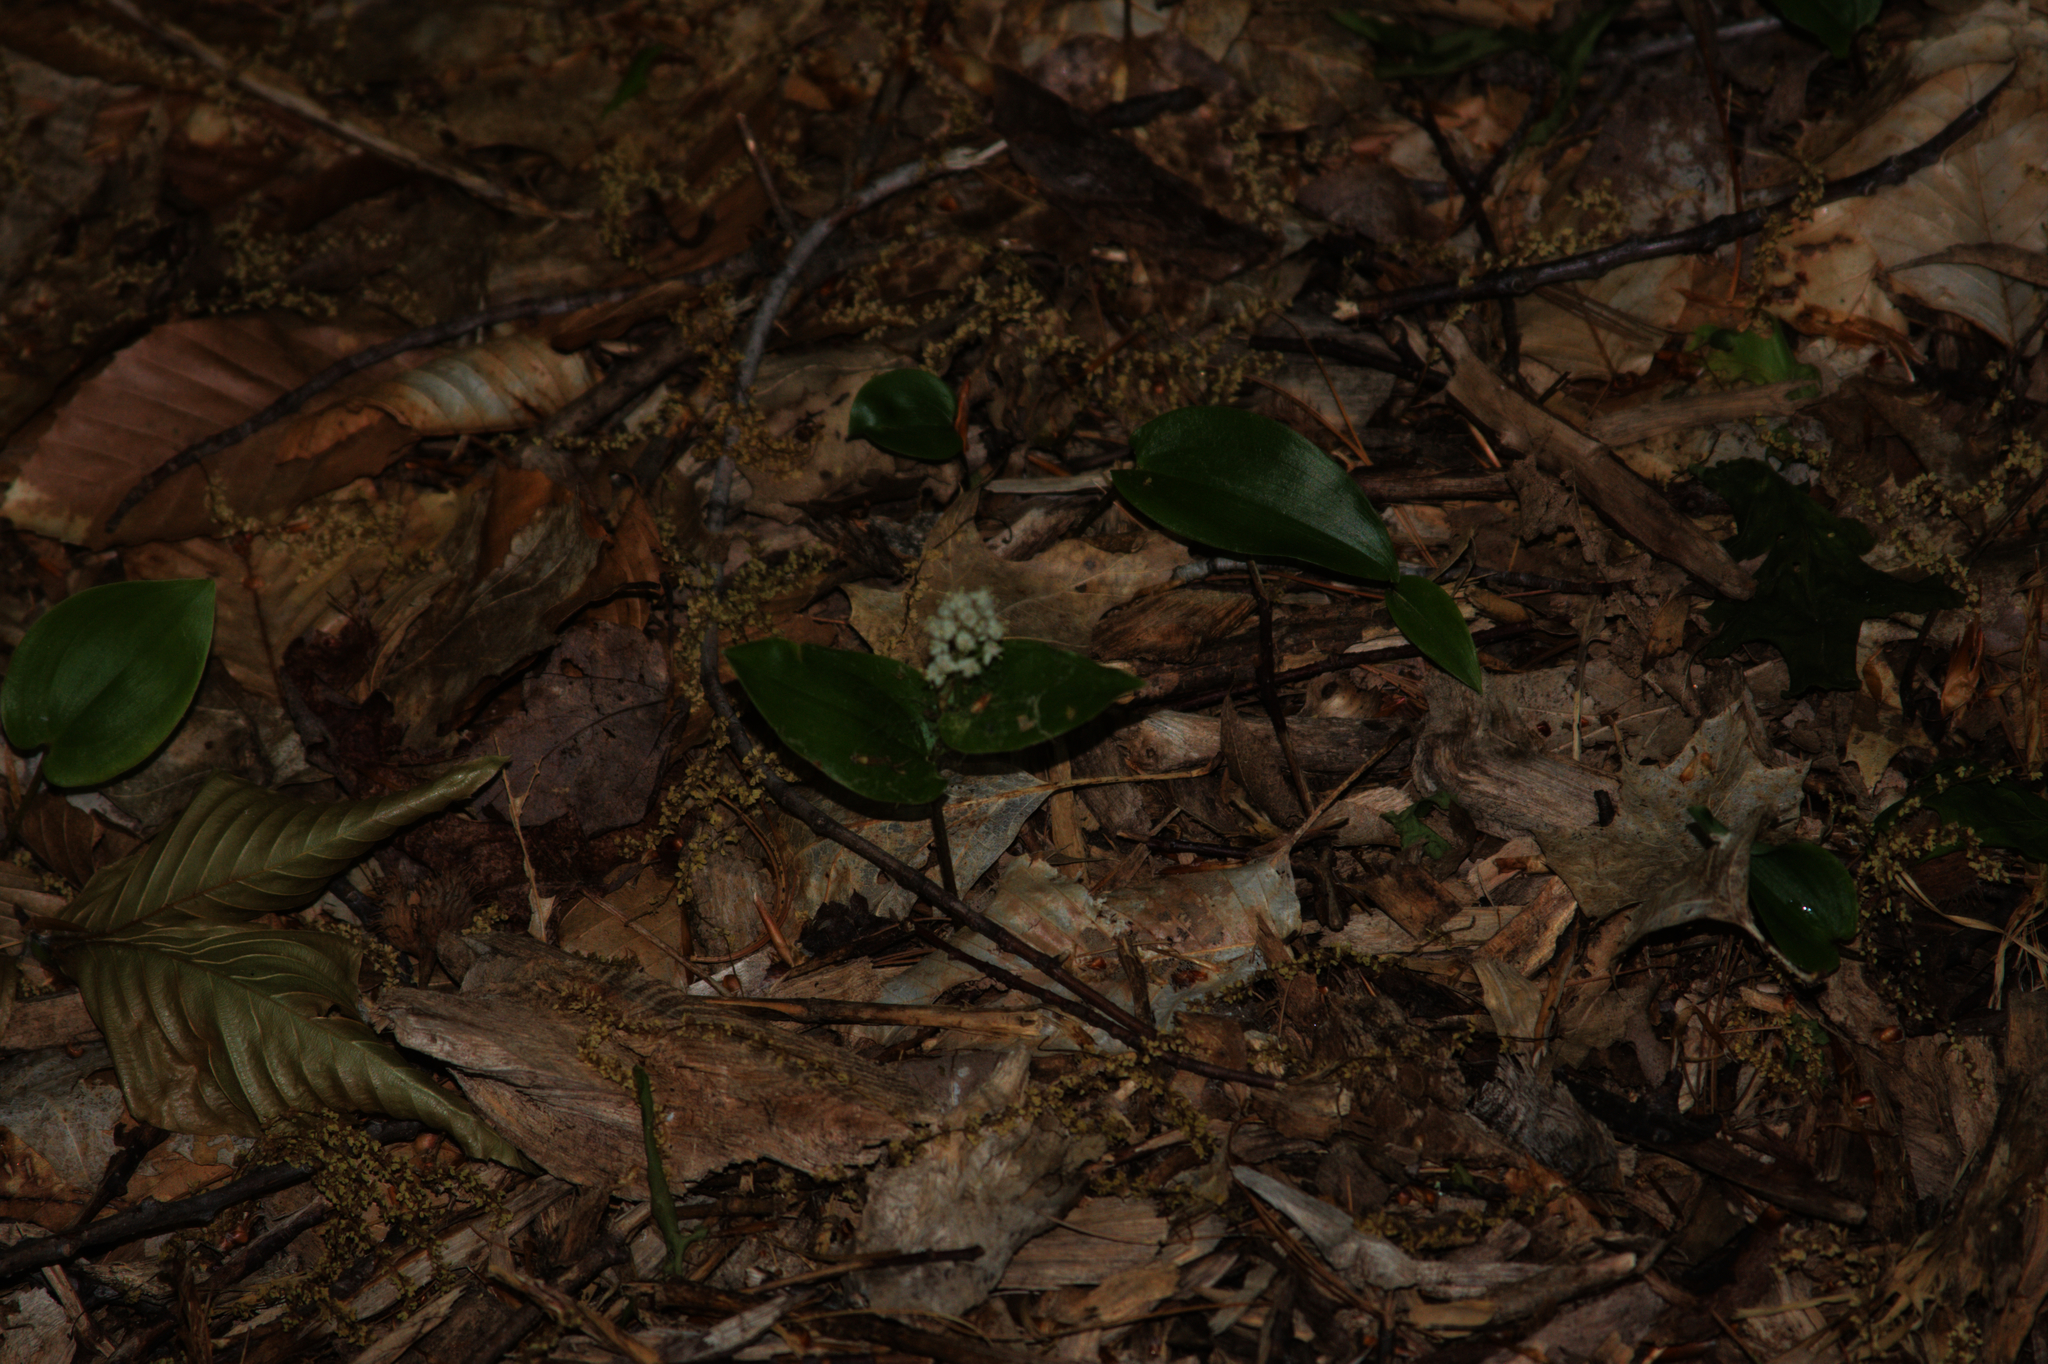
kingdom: Plantae
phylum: Tracheophyta
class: Liliopsida
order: Asparagales
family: Asparagaceae
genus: Maianthemum
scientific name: Maianthemum canadense
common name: False lily-of-the-valley
